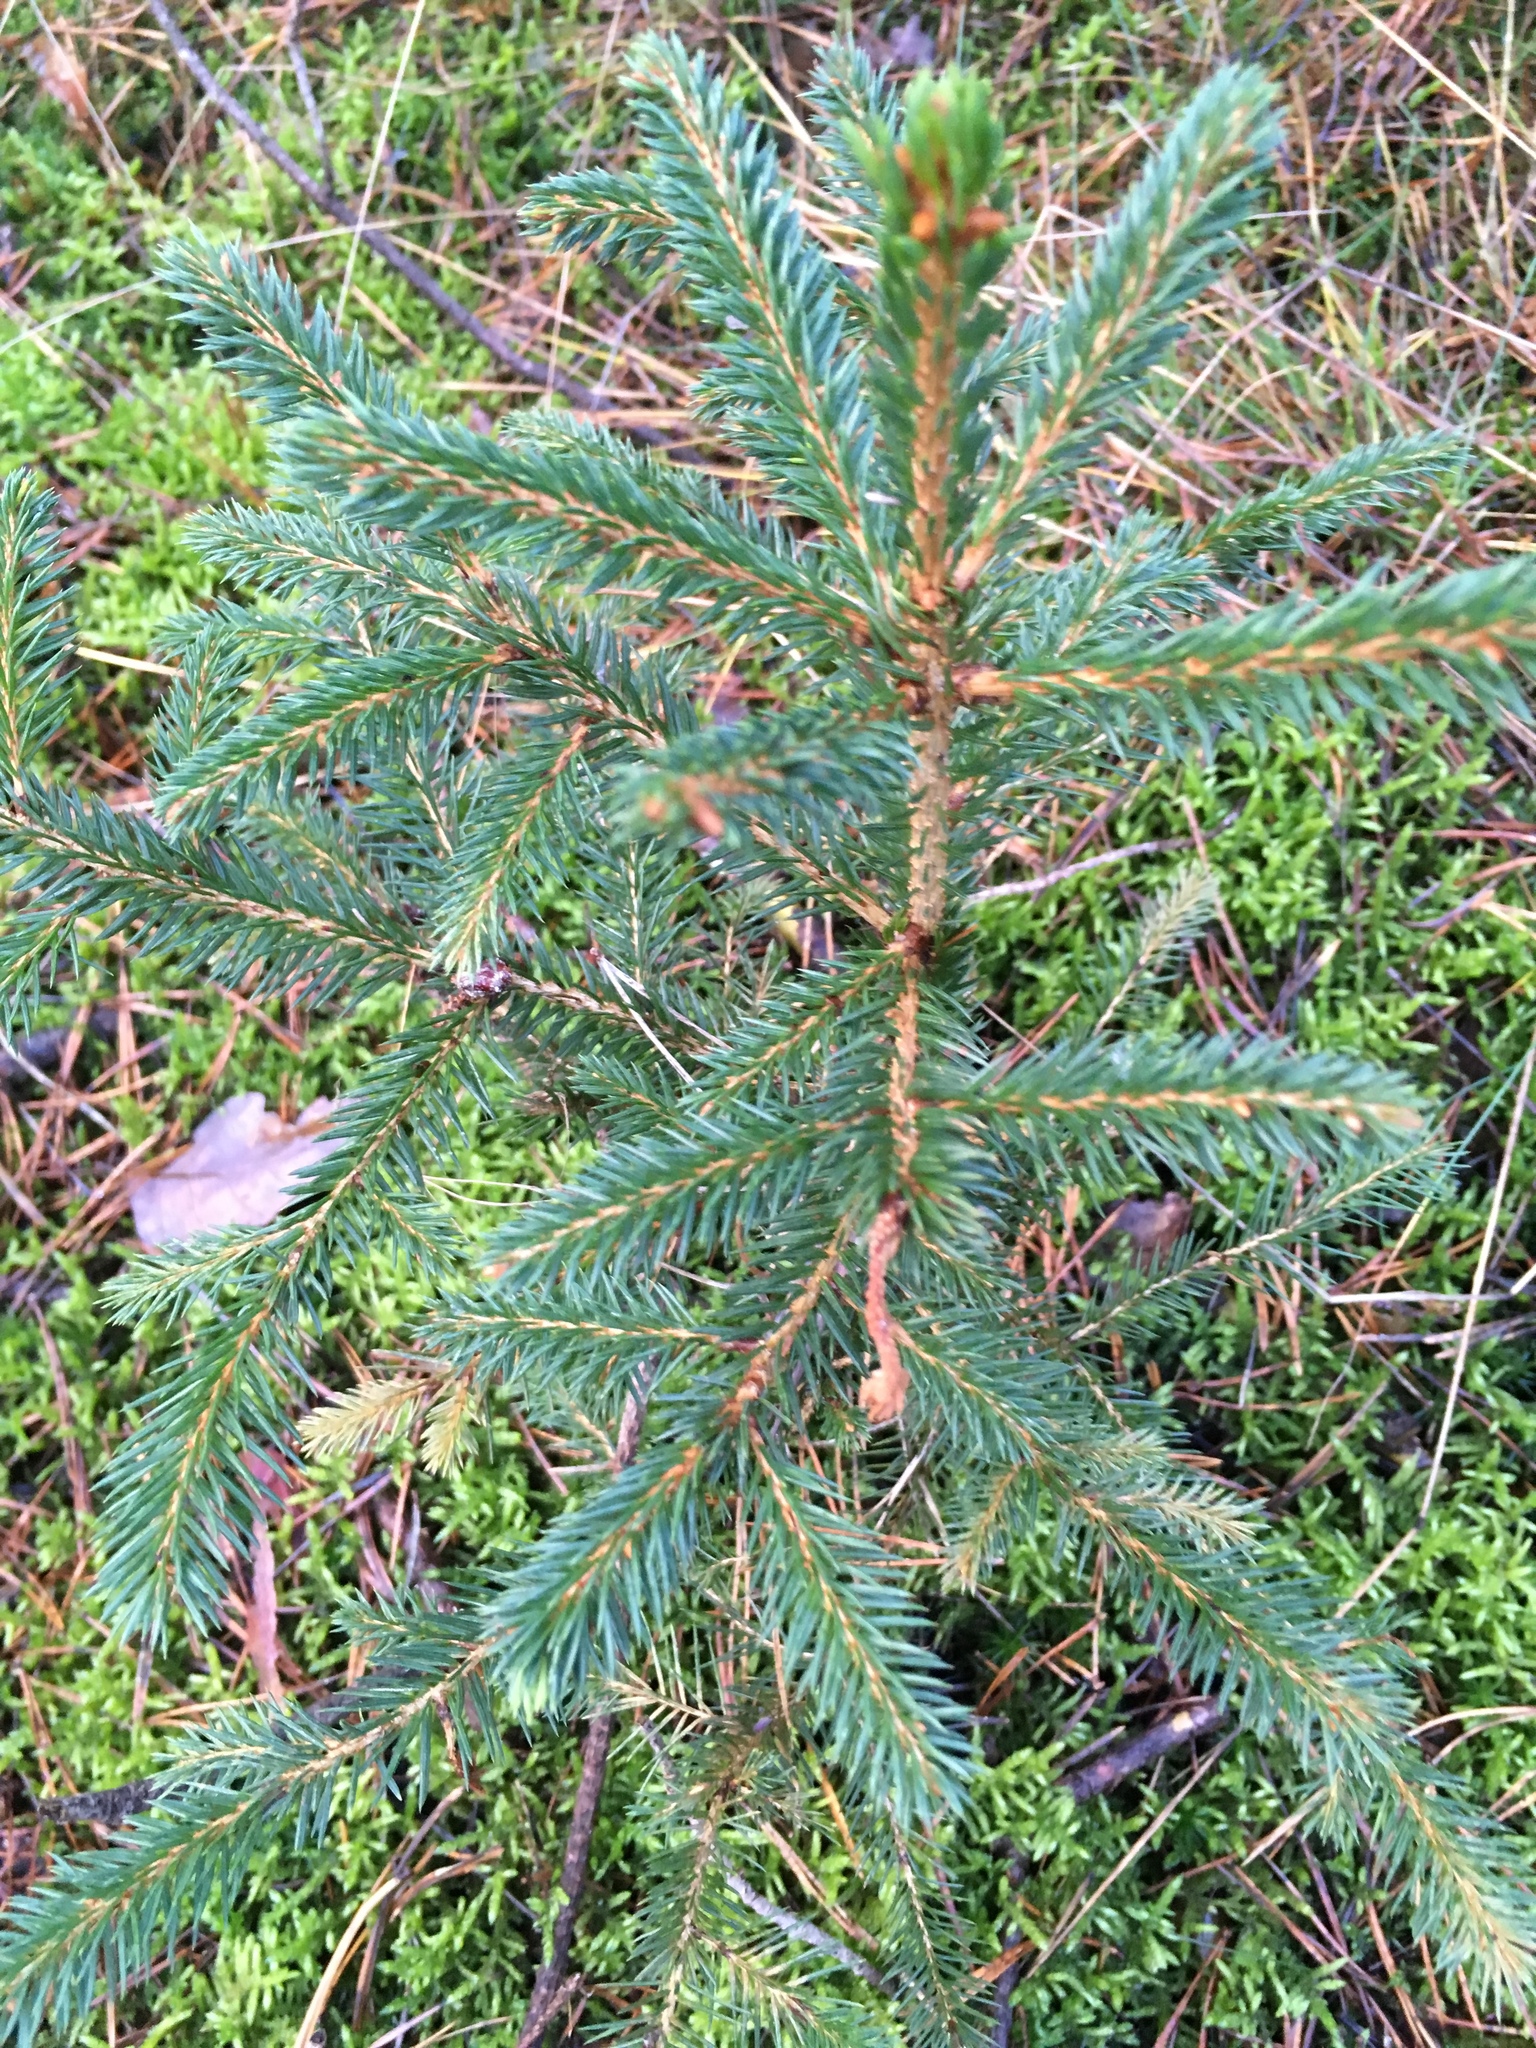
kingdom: Plantae
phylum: Tracheophyta
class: Pinopsida
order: Pinales
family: Pinaceae
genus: Picea
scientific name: Picea abies
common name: Norway spruce
